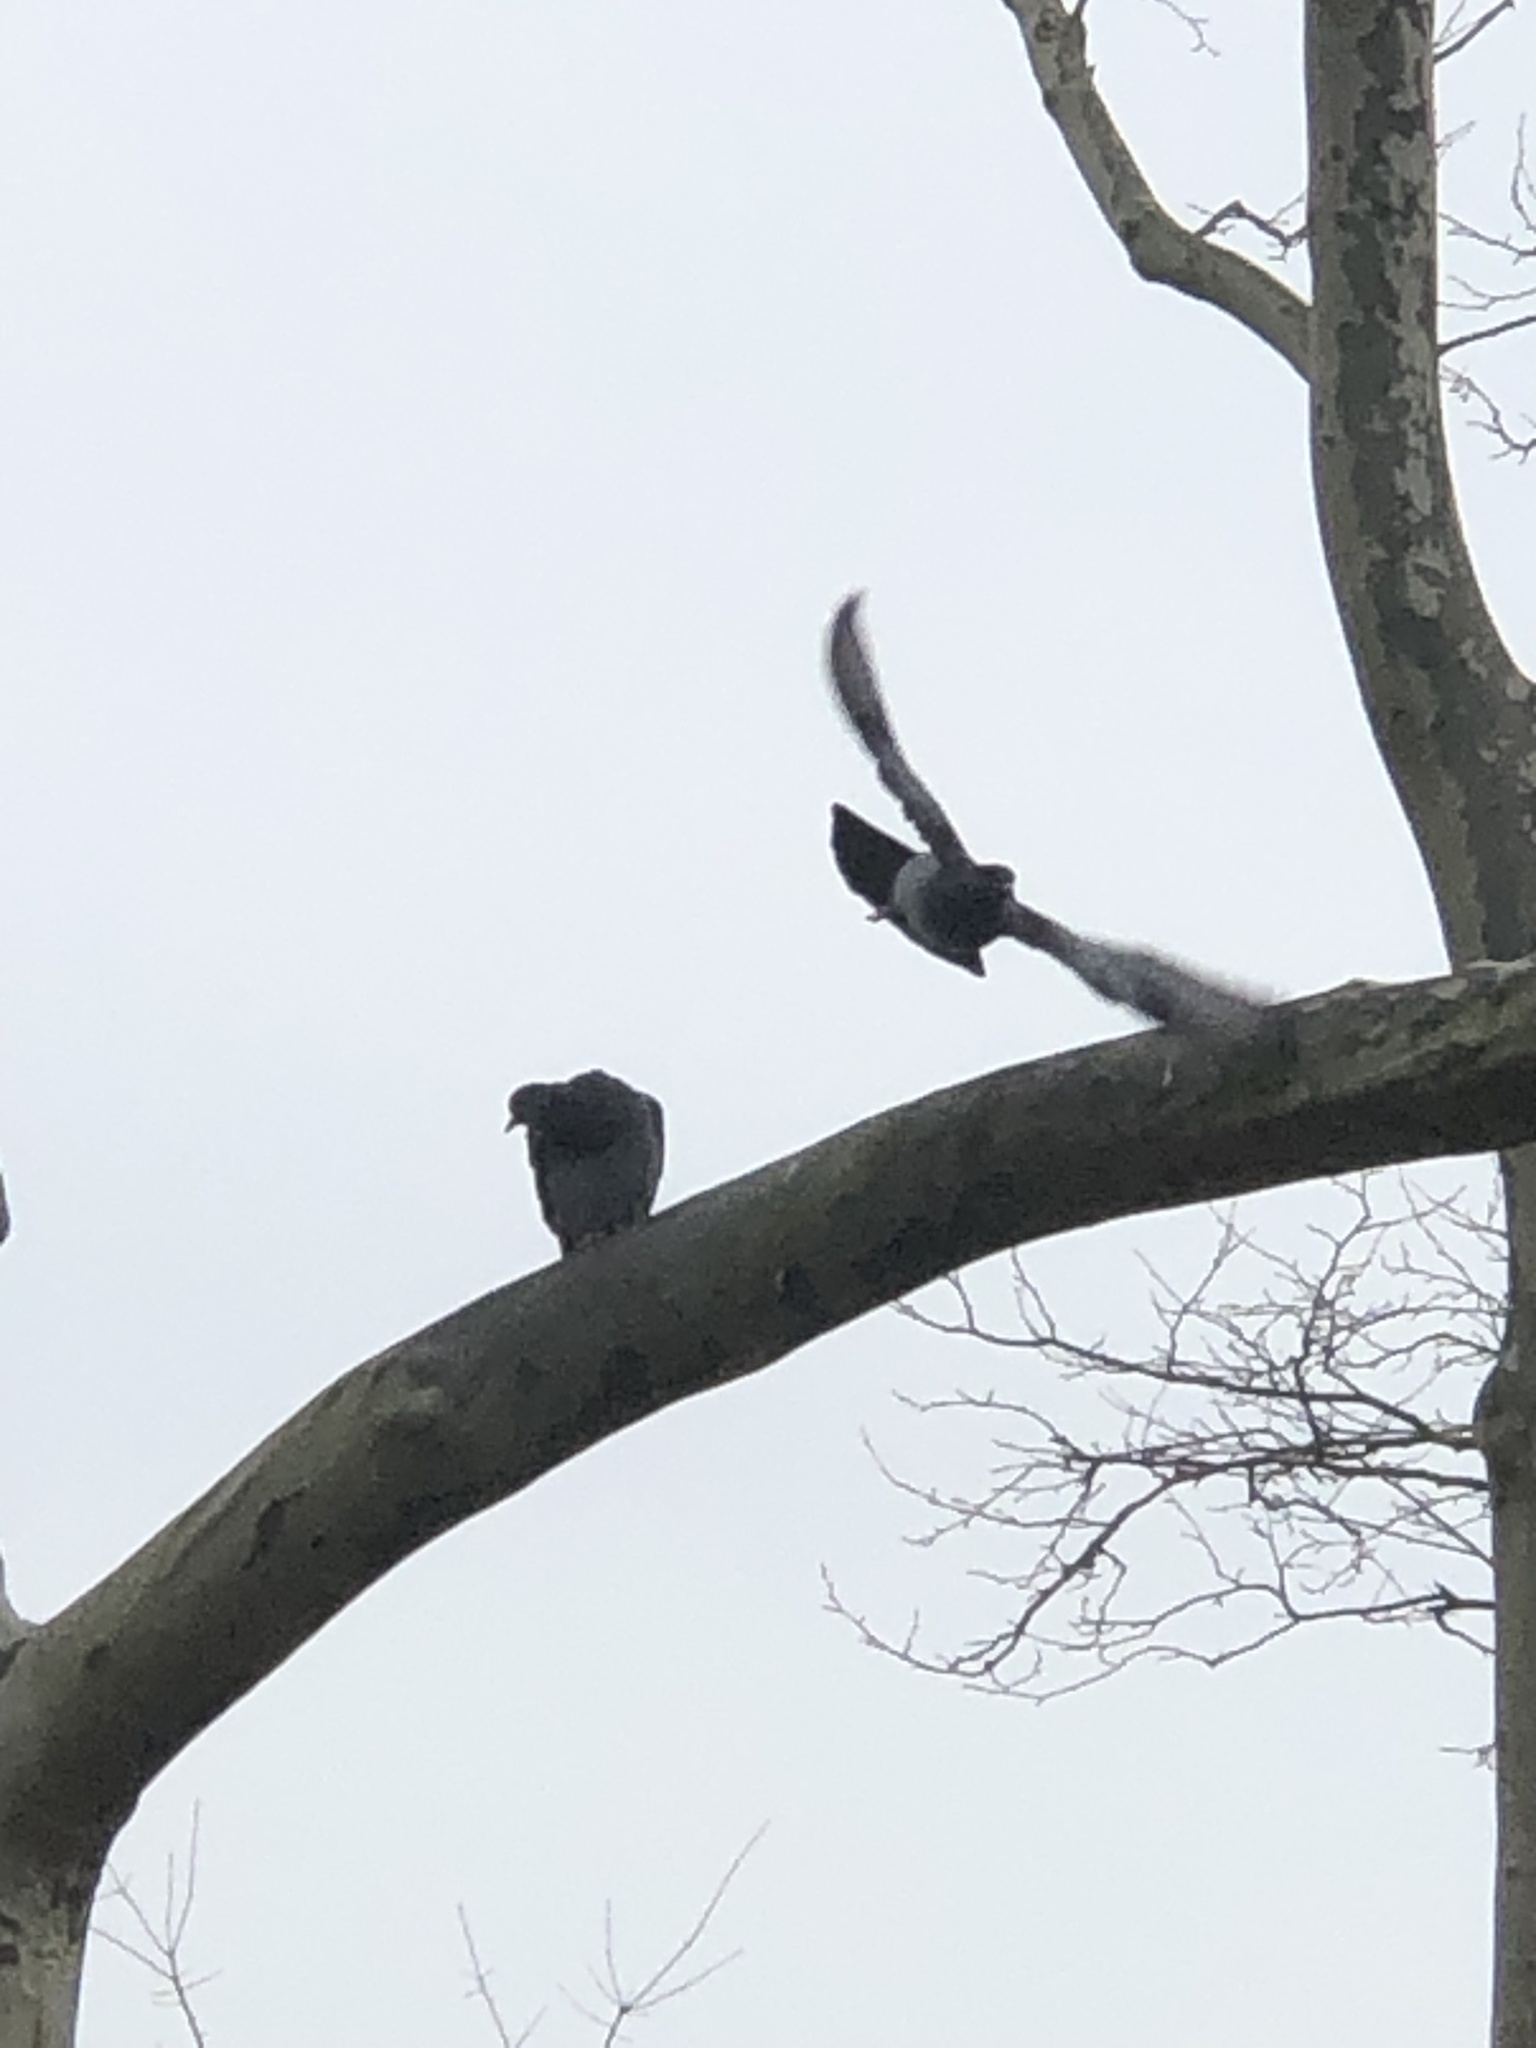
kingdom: Animalia
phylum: Chordata
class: Aves
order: Columbiformes
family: Columbidae
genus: Columba
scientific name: Columba livia
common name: Rock pigeon
